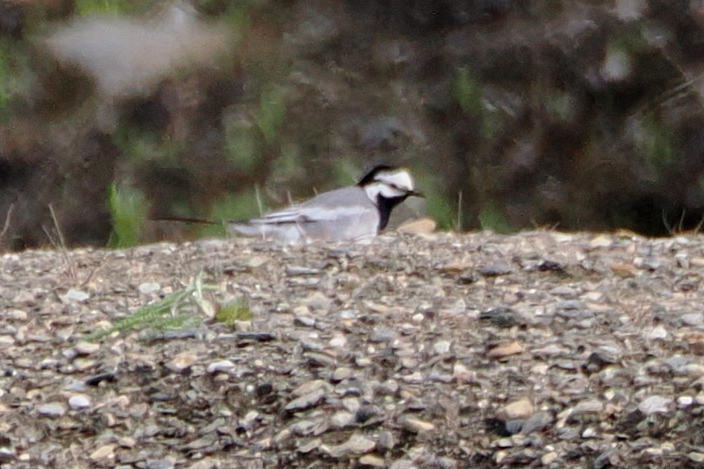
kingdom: Animalia
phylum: Chordata
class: Aves
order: Passeriformes
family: Motacillidae
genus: Motacilla
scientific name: Motacilla alba
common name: White wagtail
